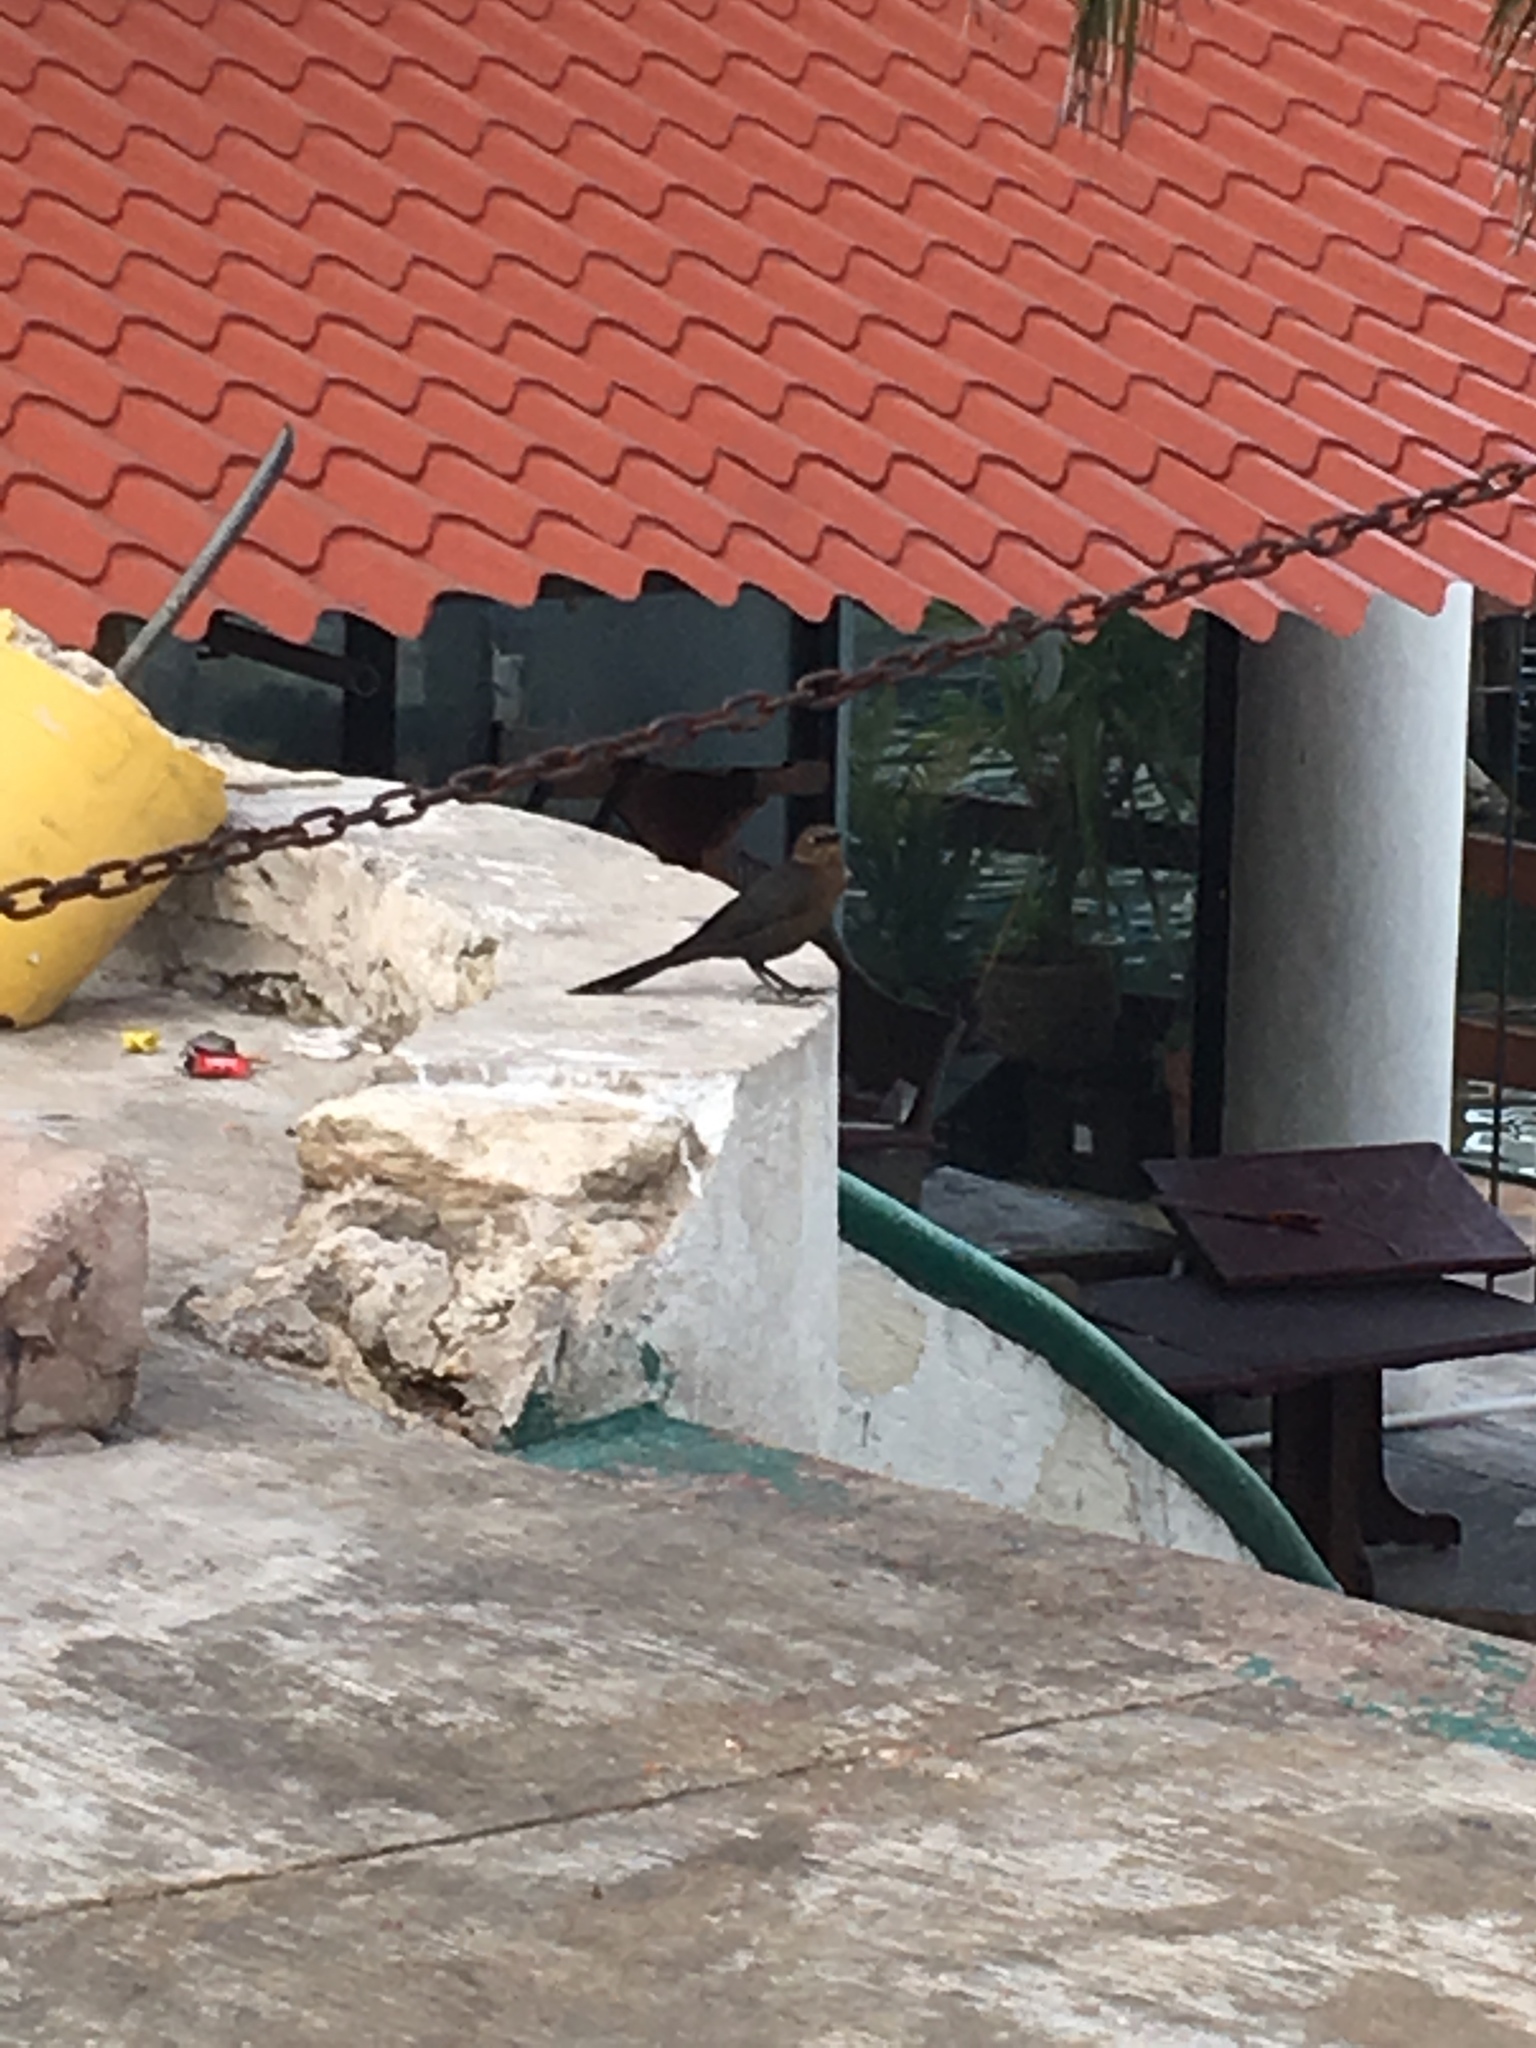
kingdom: Animalia
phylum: Chordata
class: Aves
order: Passeriformes
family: Icteridae
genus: Quiscalus
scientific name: Quiscalus mexicanus
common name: Great-tailed grackle
